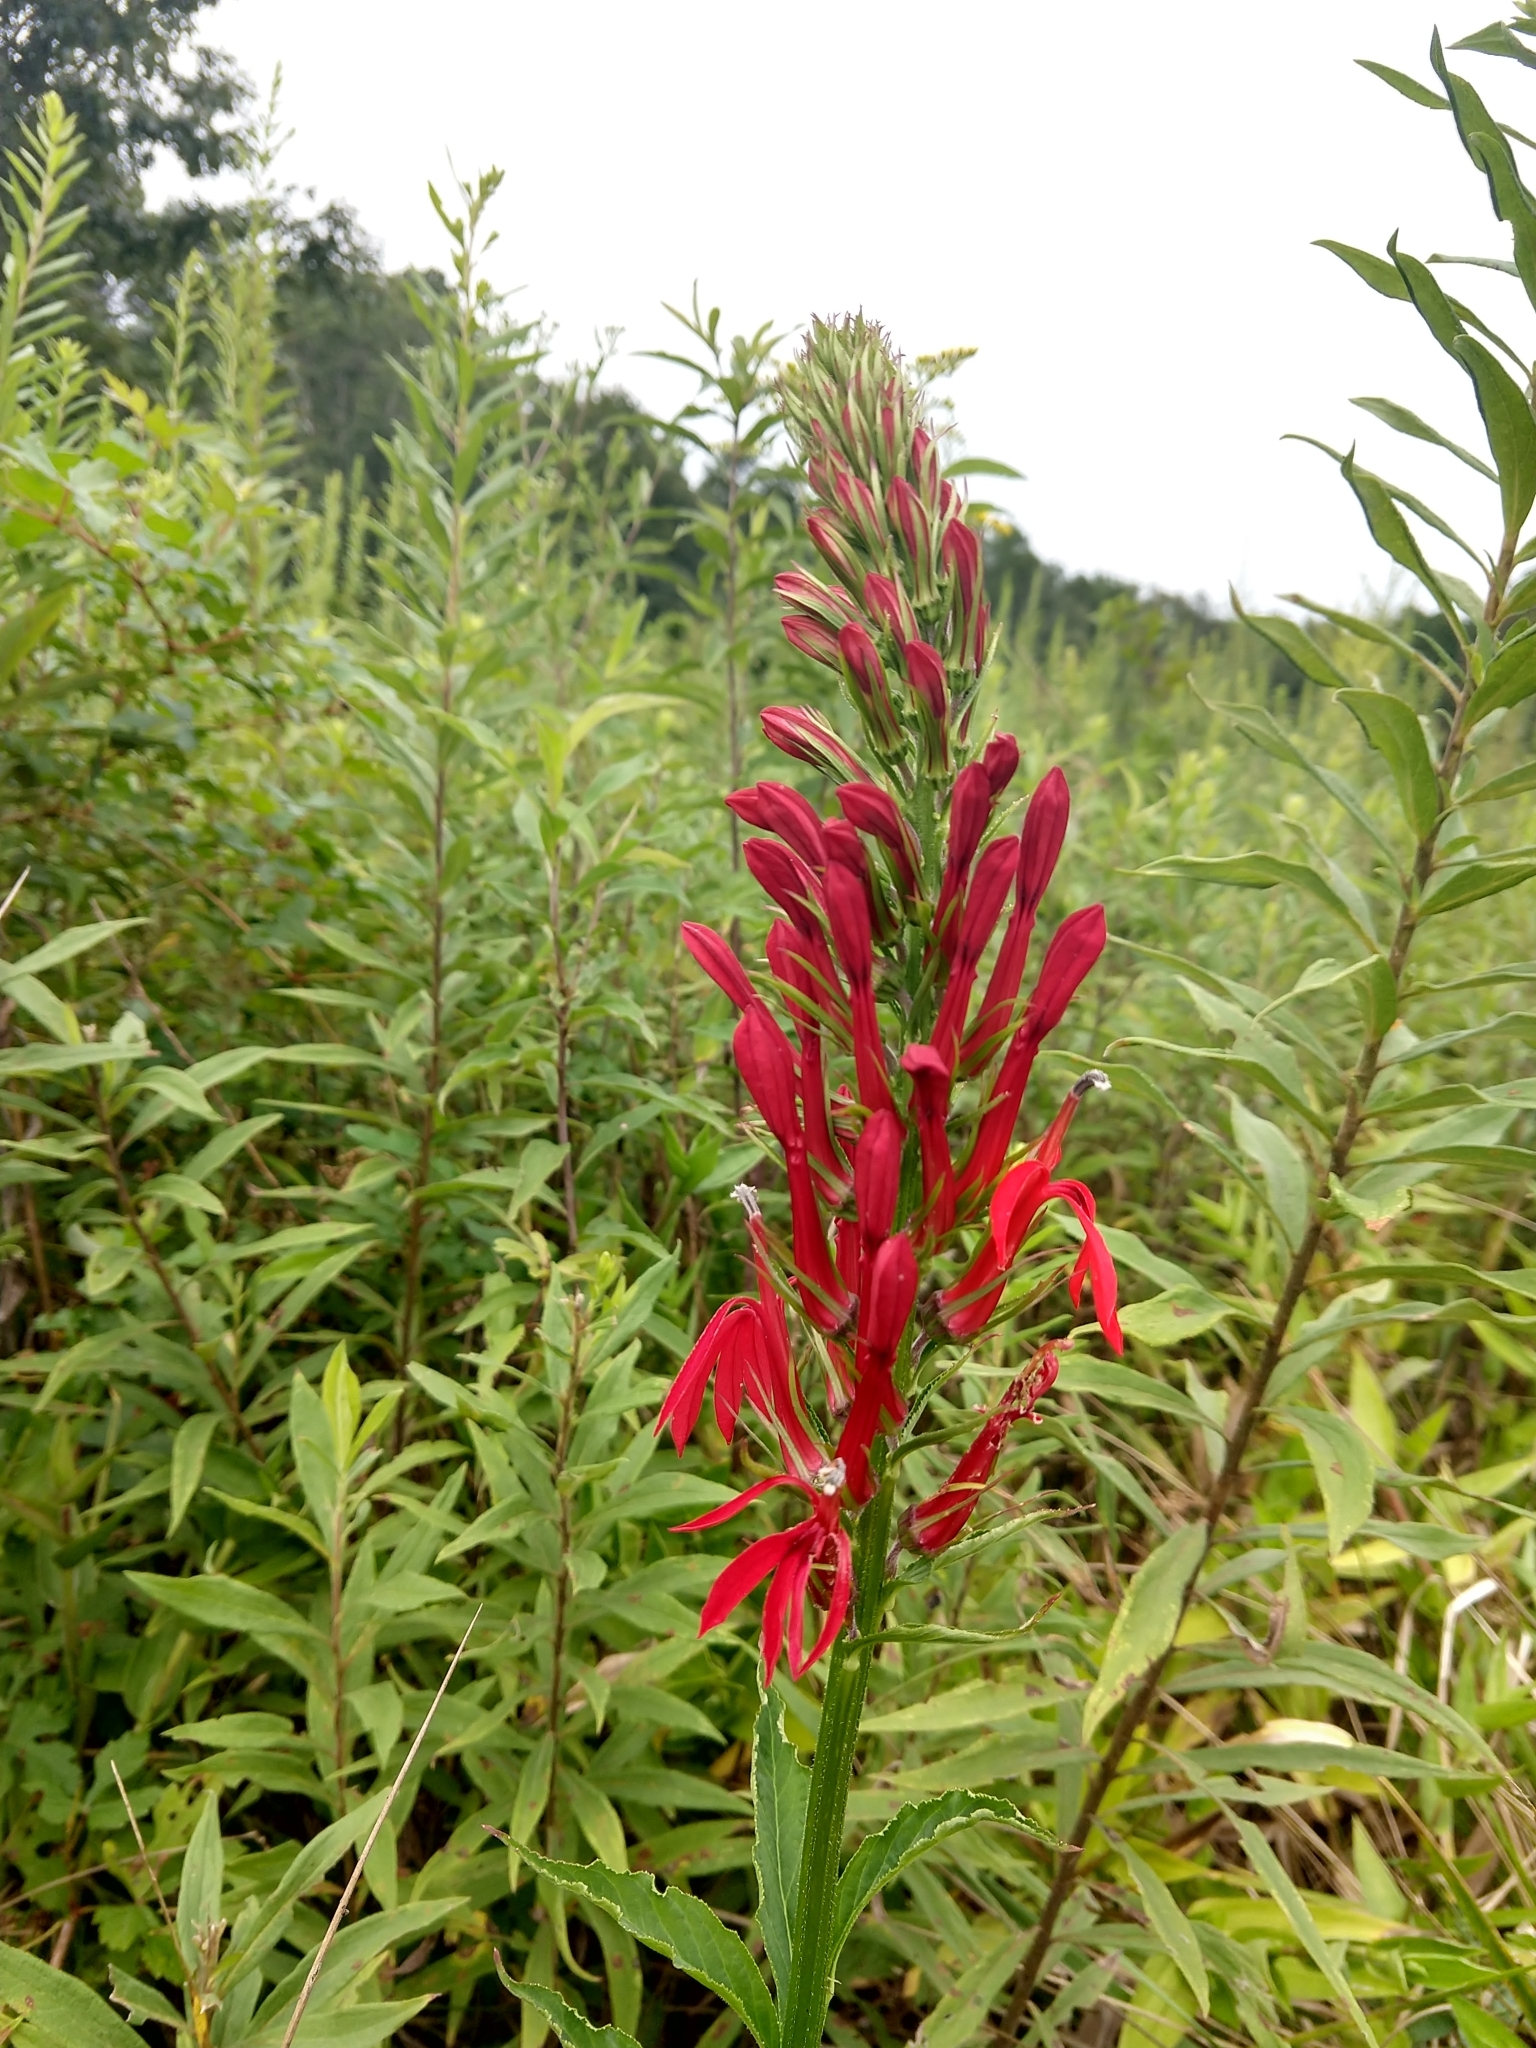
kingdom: Plantae
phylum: Tracheophyta
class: Magnoliopsida
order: Asterales
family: Campanulaceae
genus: Lobelia
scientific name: Lobelia cardinalis
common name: Cardinal flower
